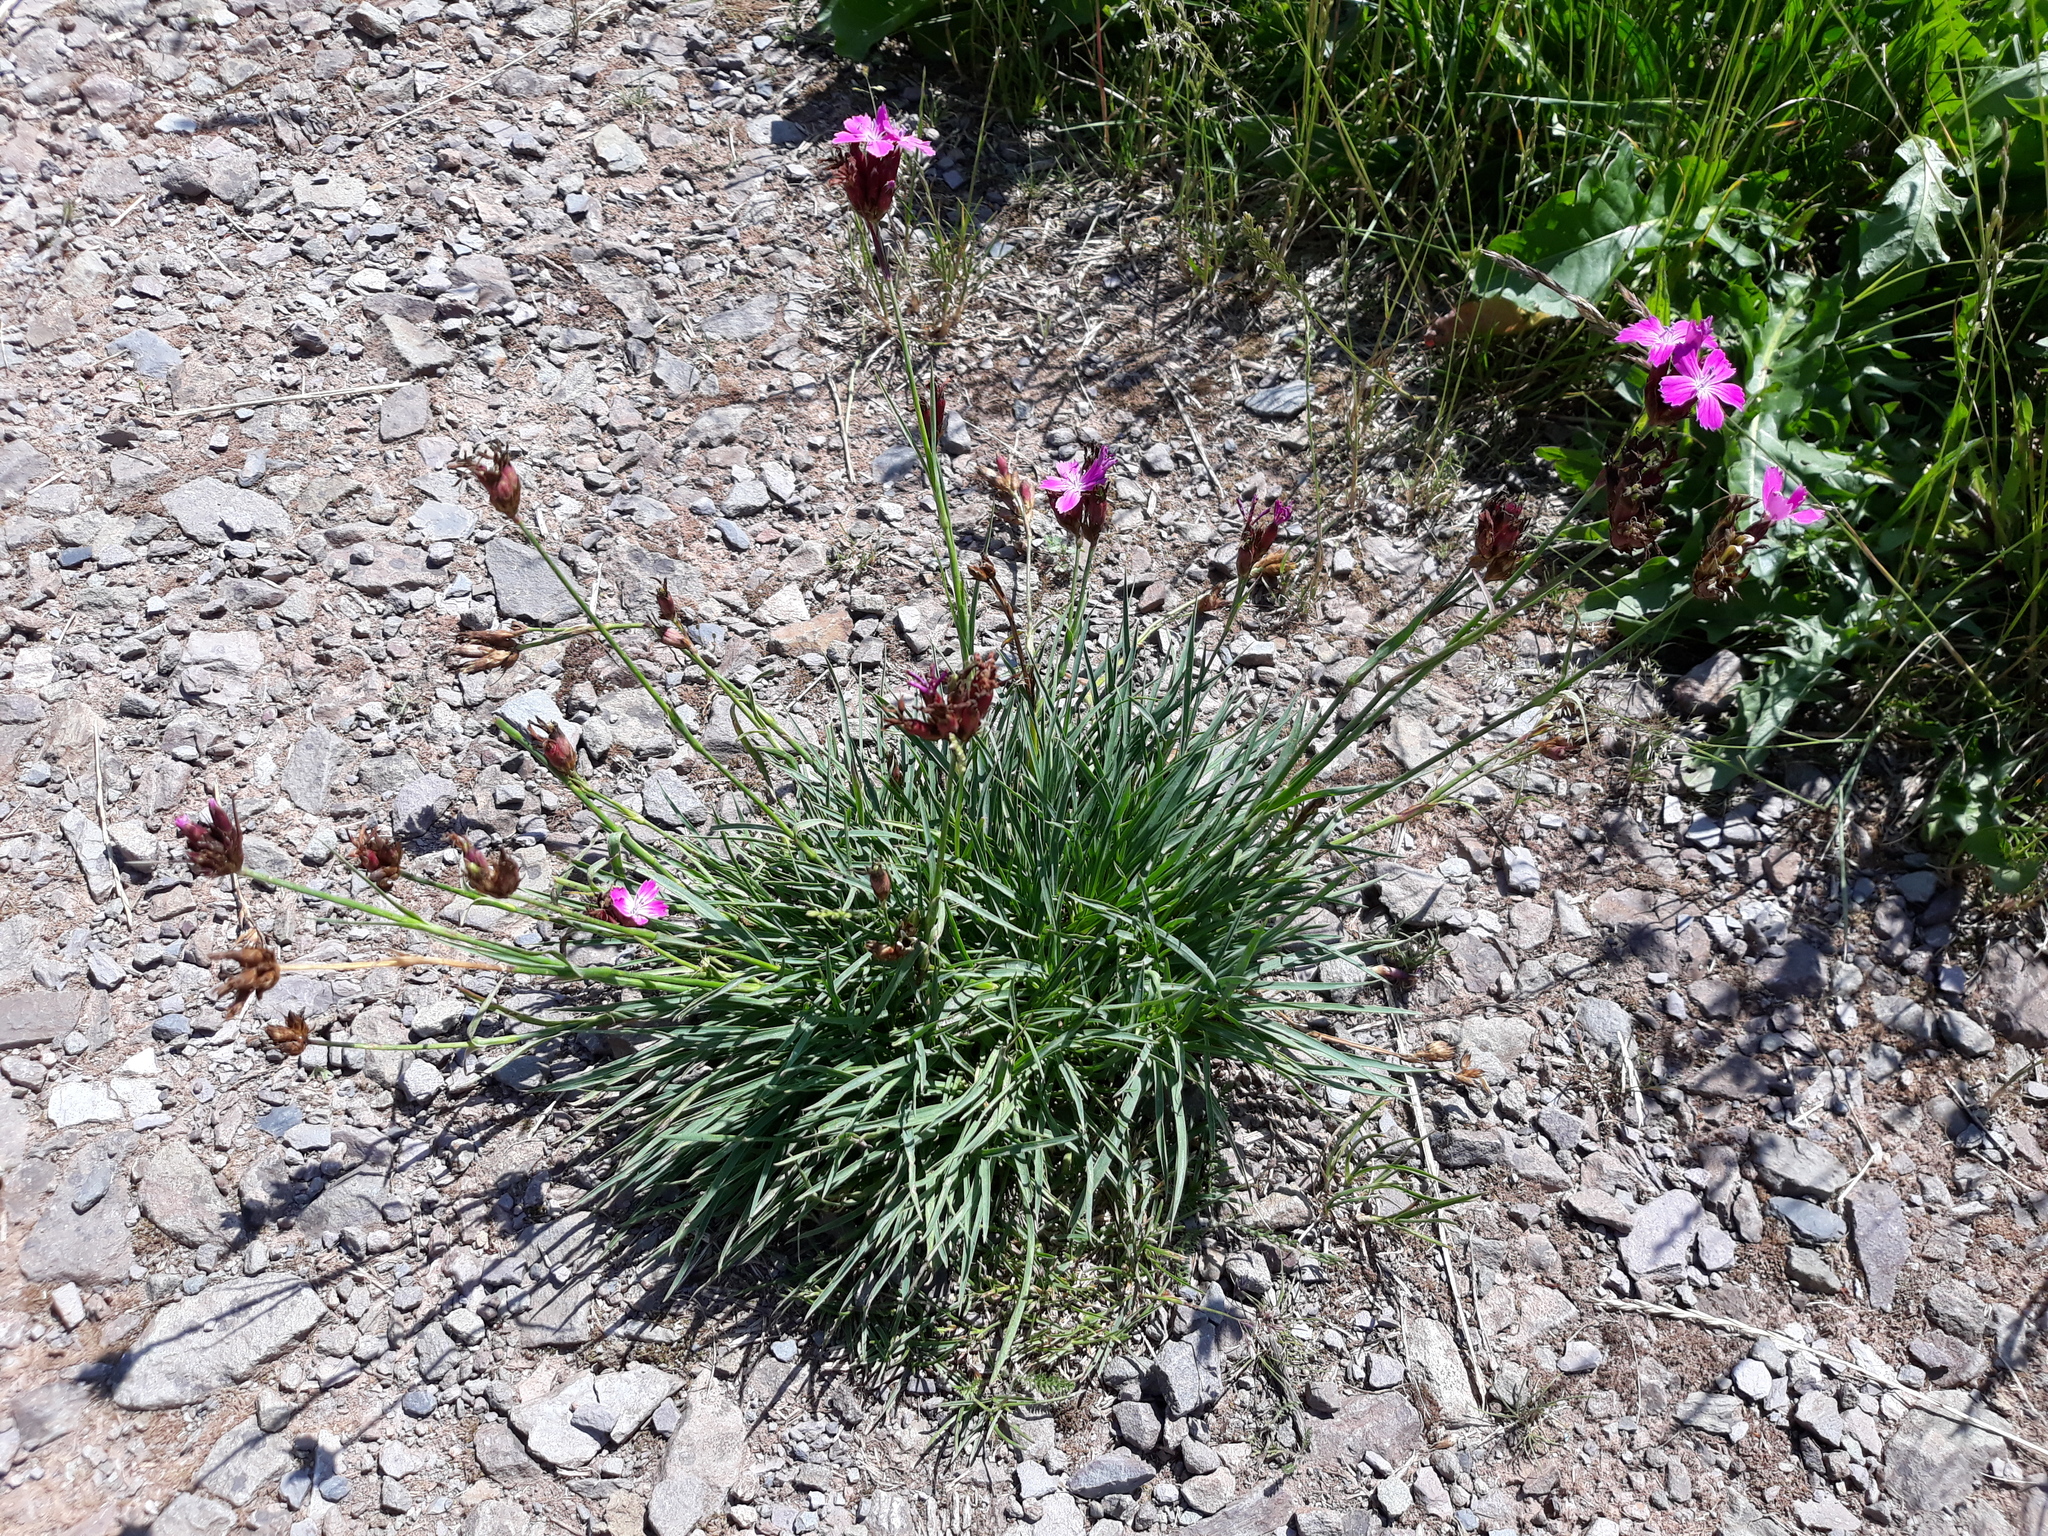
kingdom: Plantae
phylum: Tracheophyta
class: Magnoliopsida
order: Caryophyllales
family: Caryophyllaceae
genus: Dianthus
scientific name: Dianthus carthusianorum
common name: Carthusian pink
